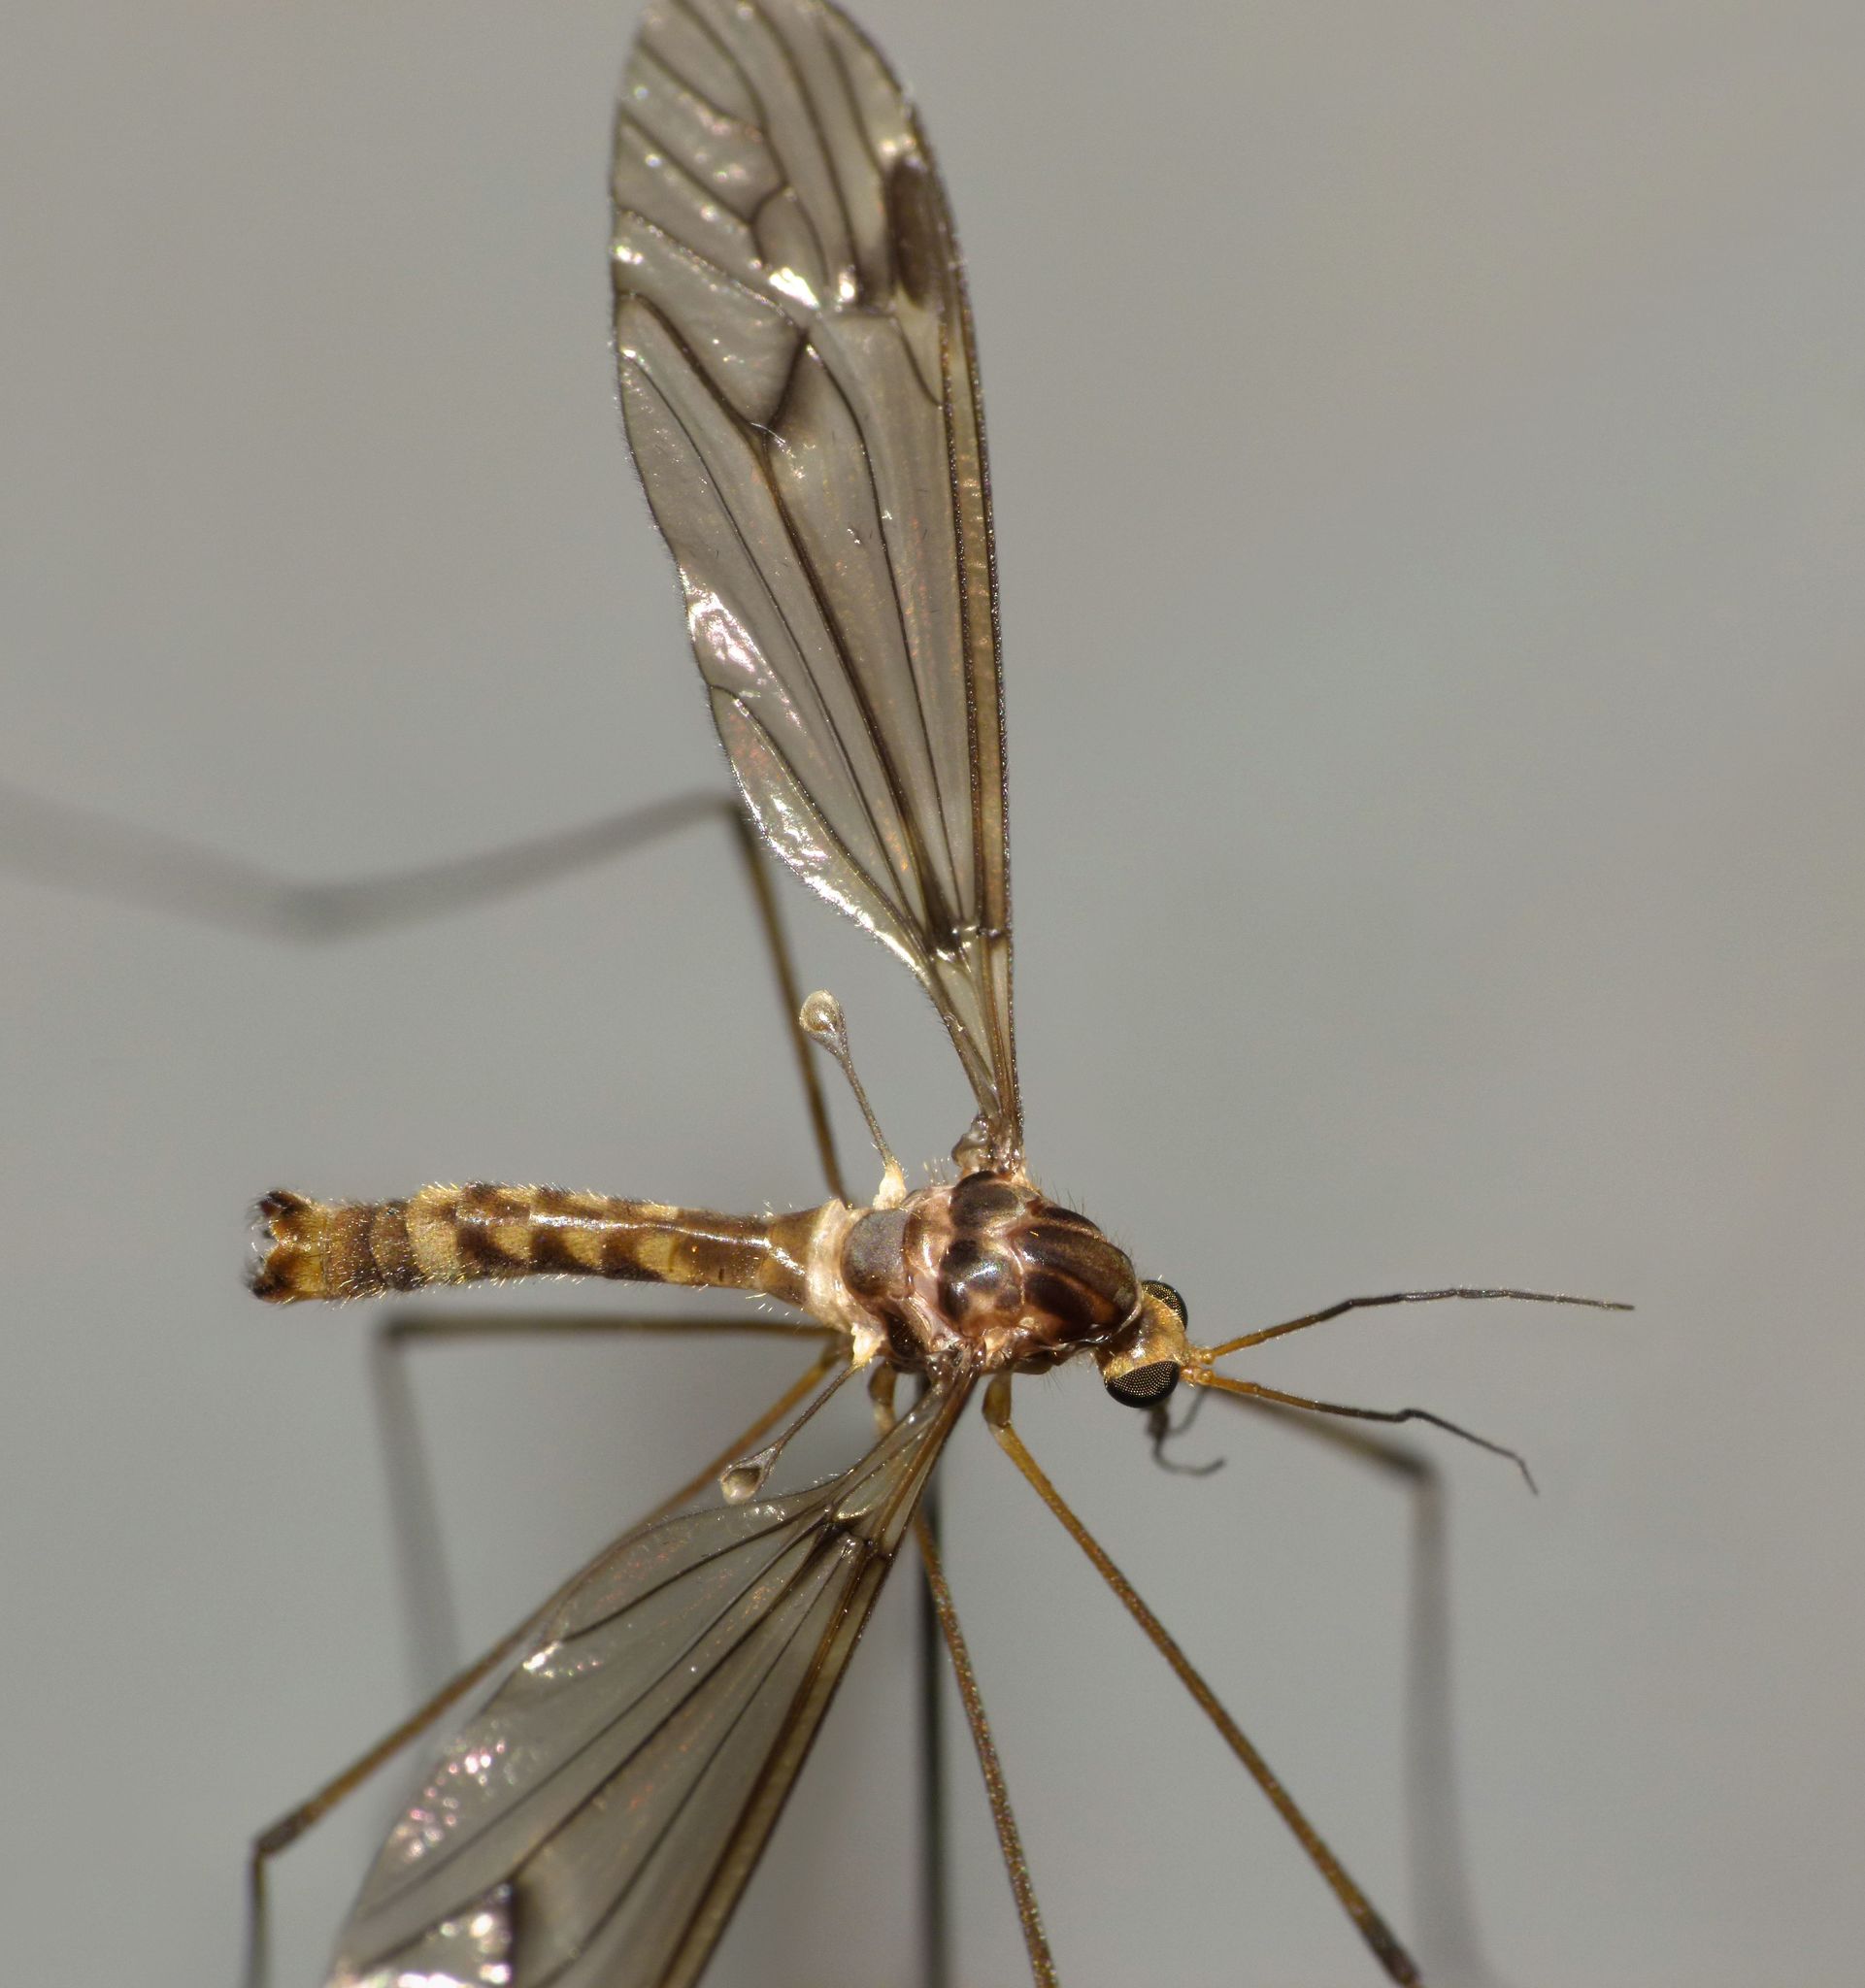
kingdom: Animalia
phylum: Arthropoda
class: Insecta
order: Diptera
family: Tipulidae
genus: Leptotarsus
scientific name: Leptotarsus cubitalis
